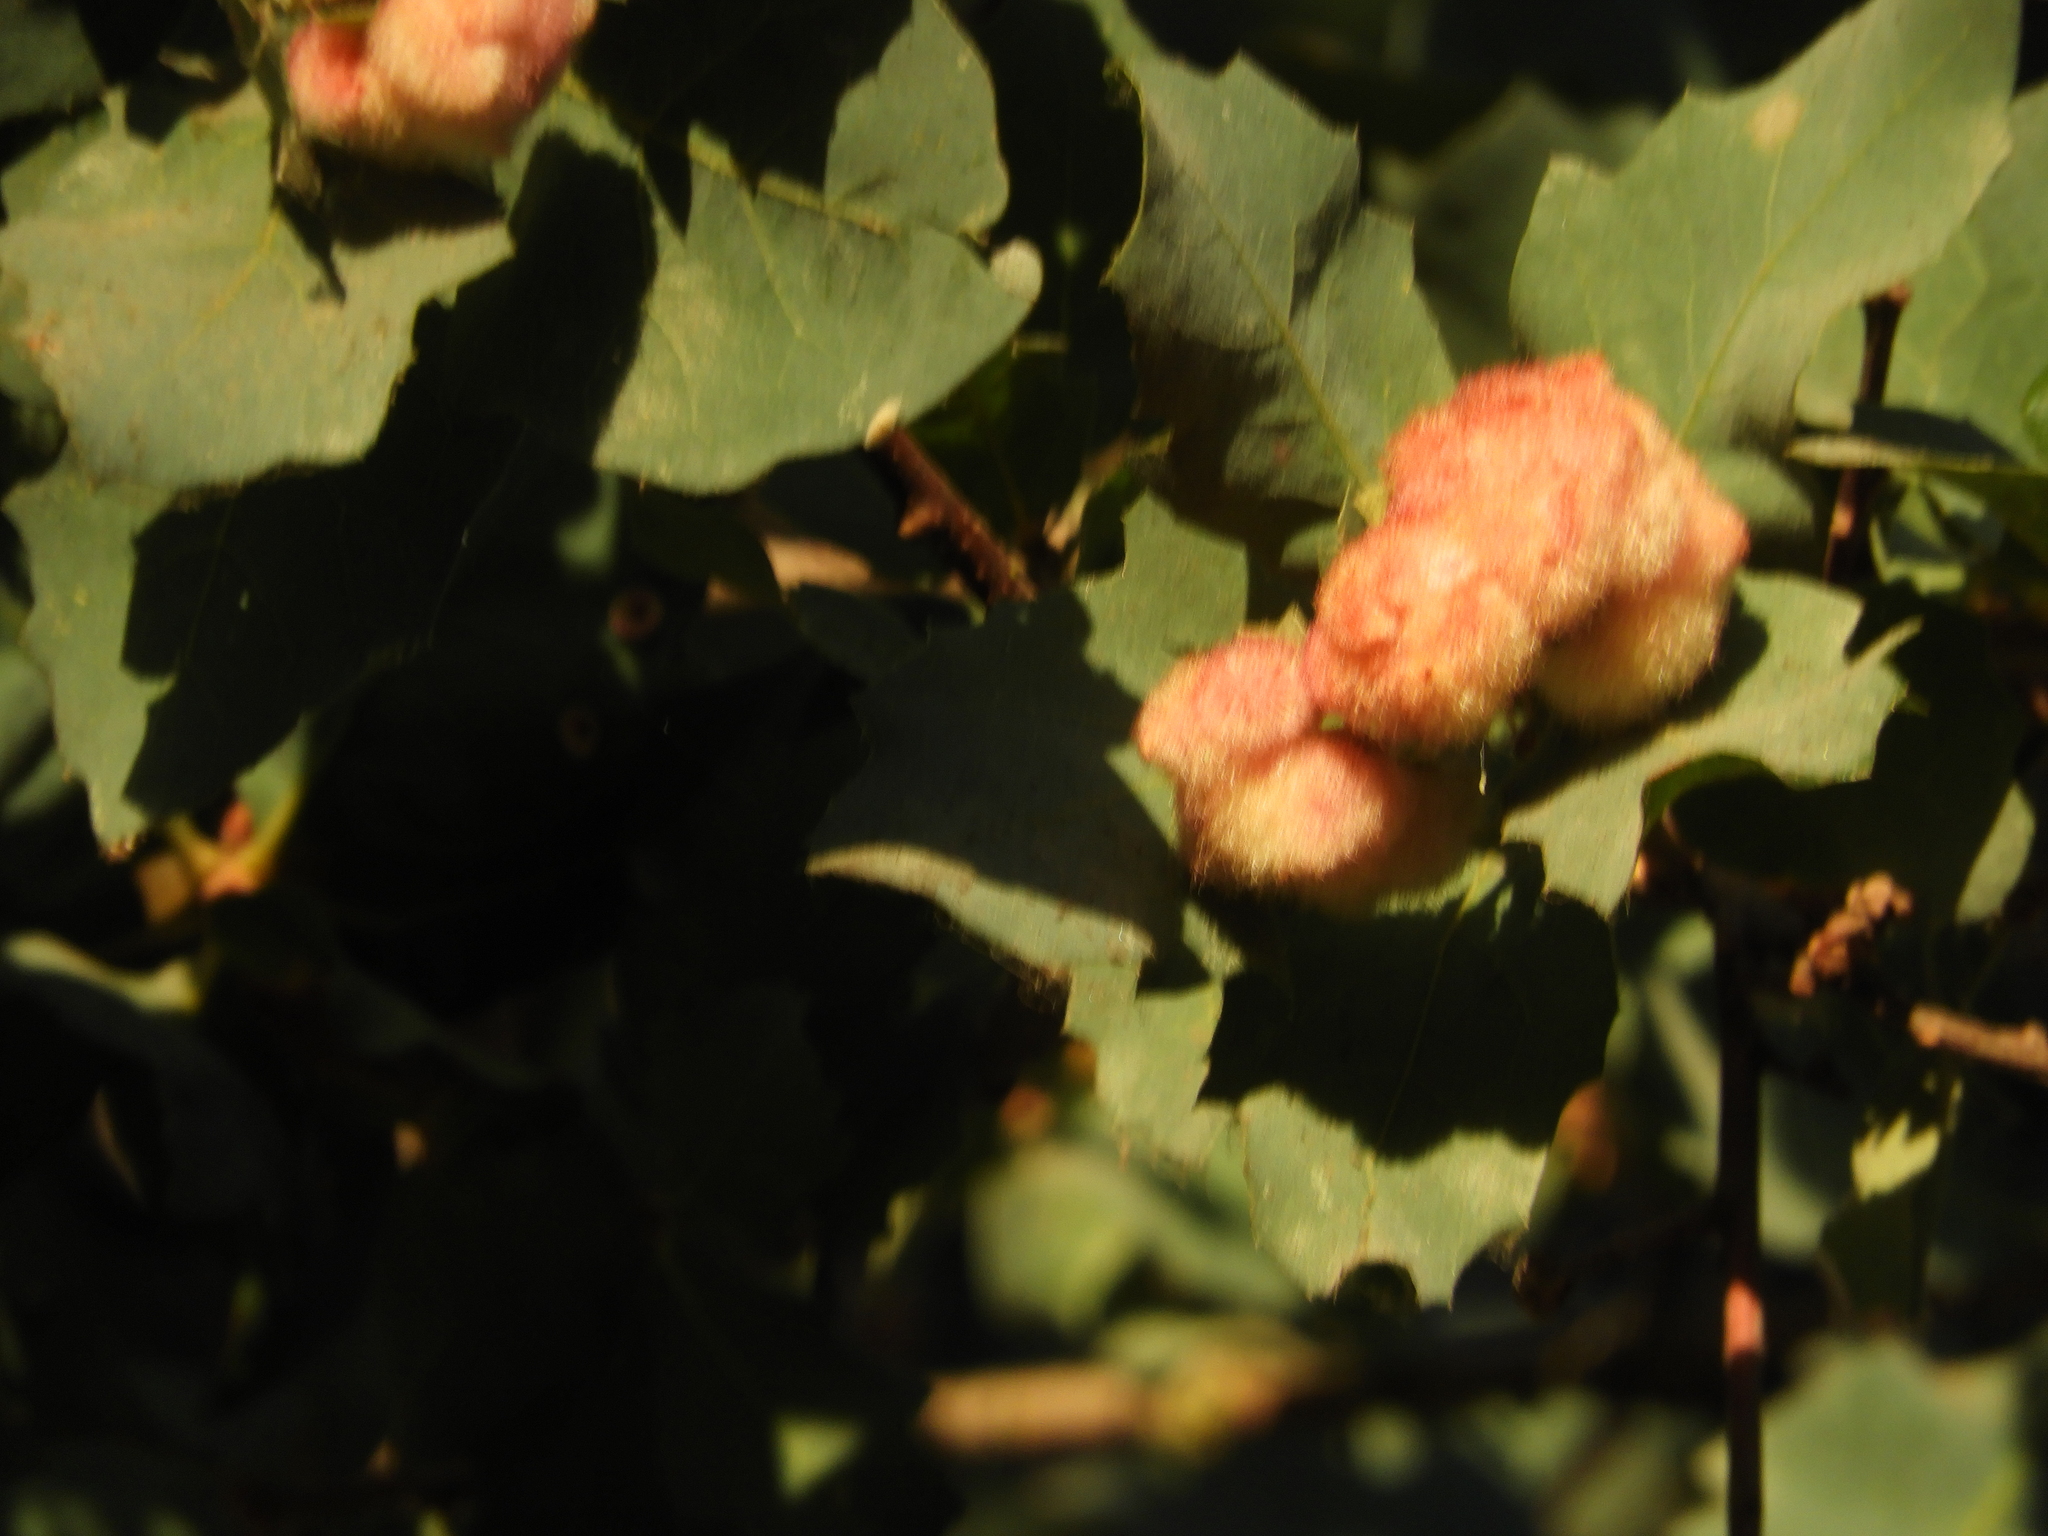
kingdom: Animalia
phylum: Arthropoda
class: Insecta
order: Hymenoptera
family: Cynipidae
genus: Andricus
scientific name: Andricus
